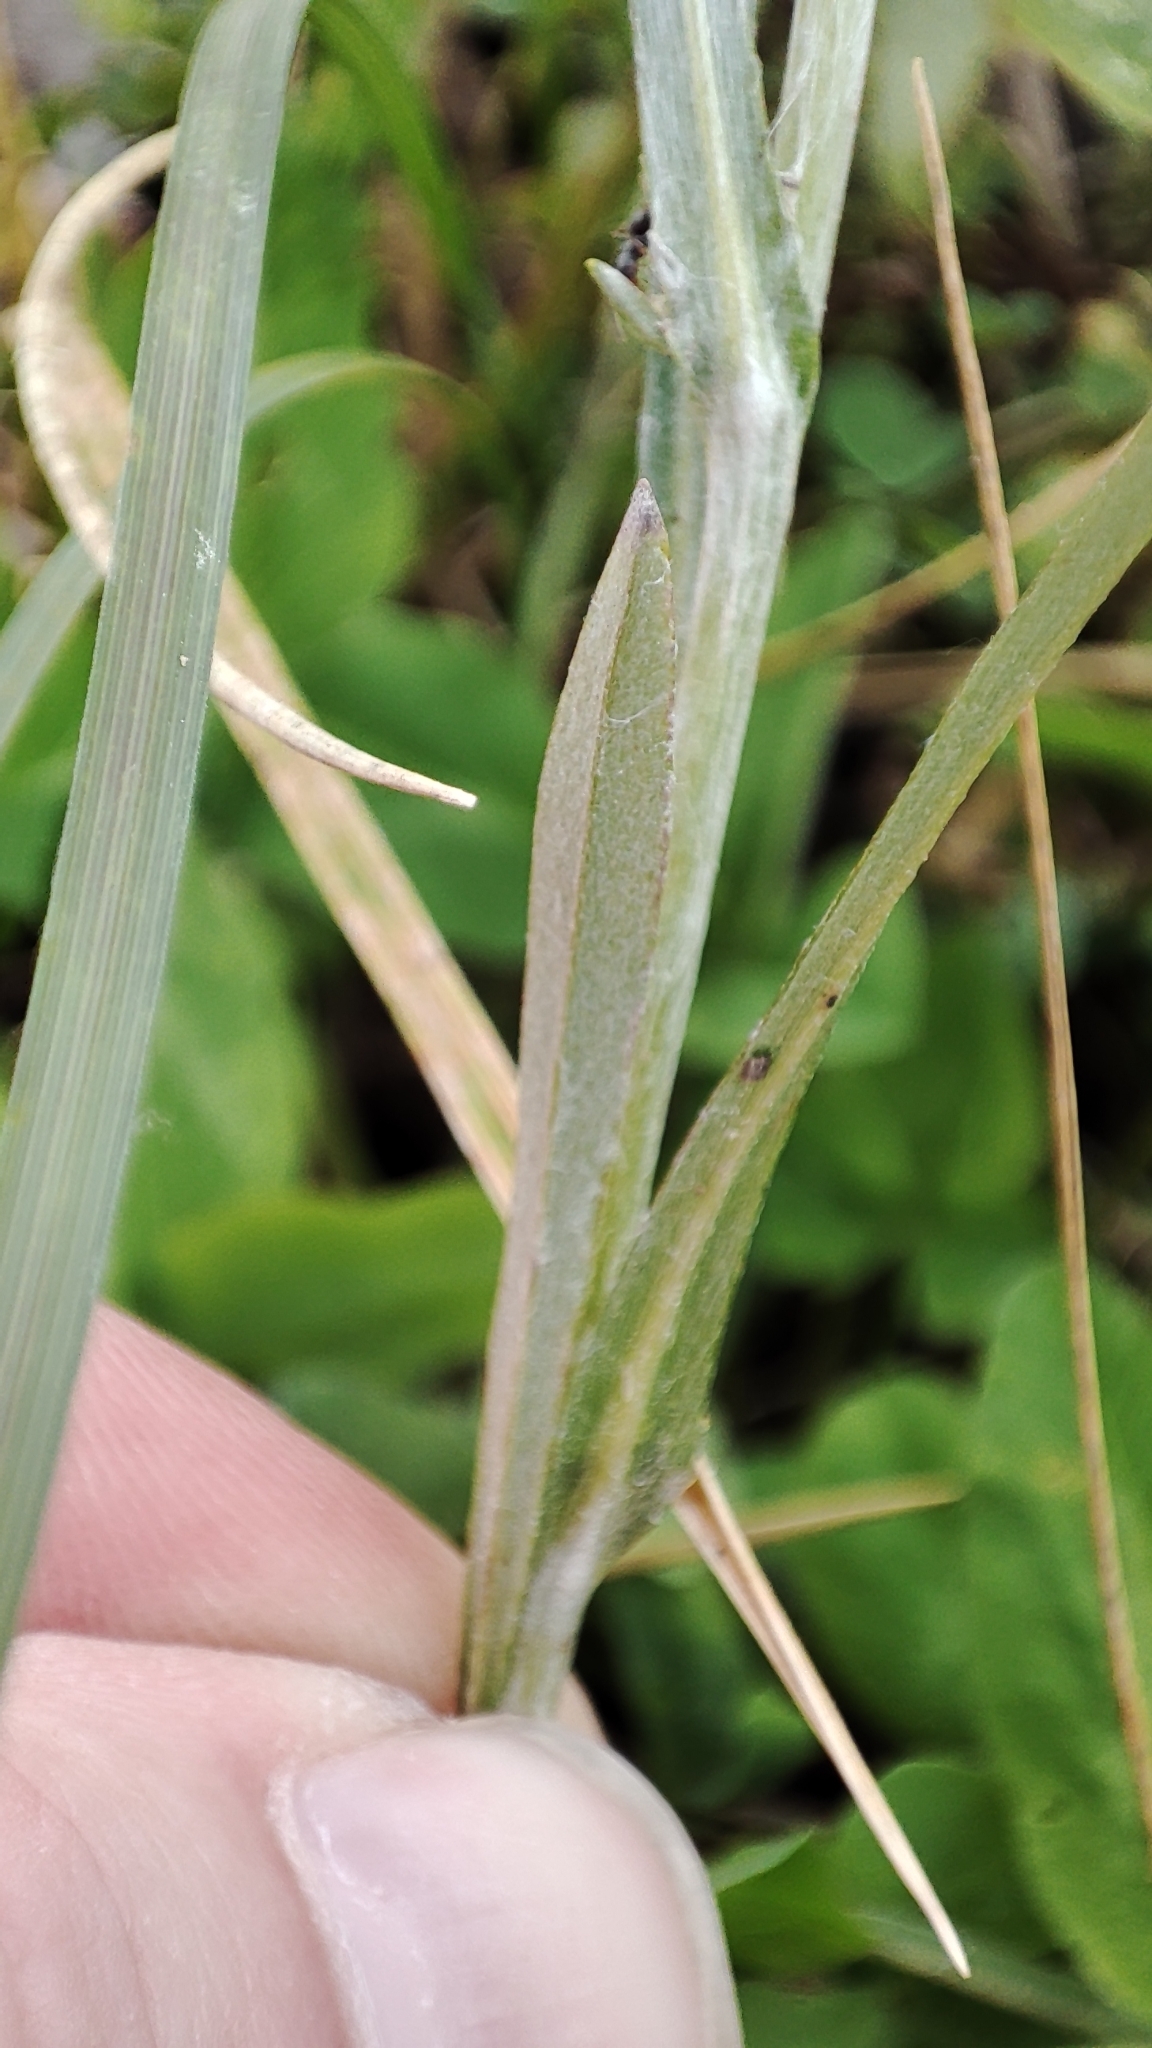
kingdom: Plantae
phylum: Tracheophyta
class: Magnoliopsida
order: Asterales
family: Asteraceae
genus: Omalotheca
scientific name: Omalotheca sylvatica
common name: Heath cudweed
